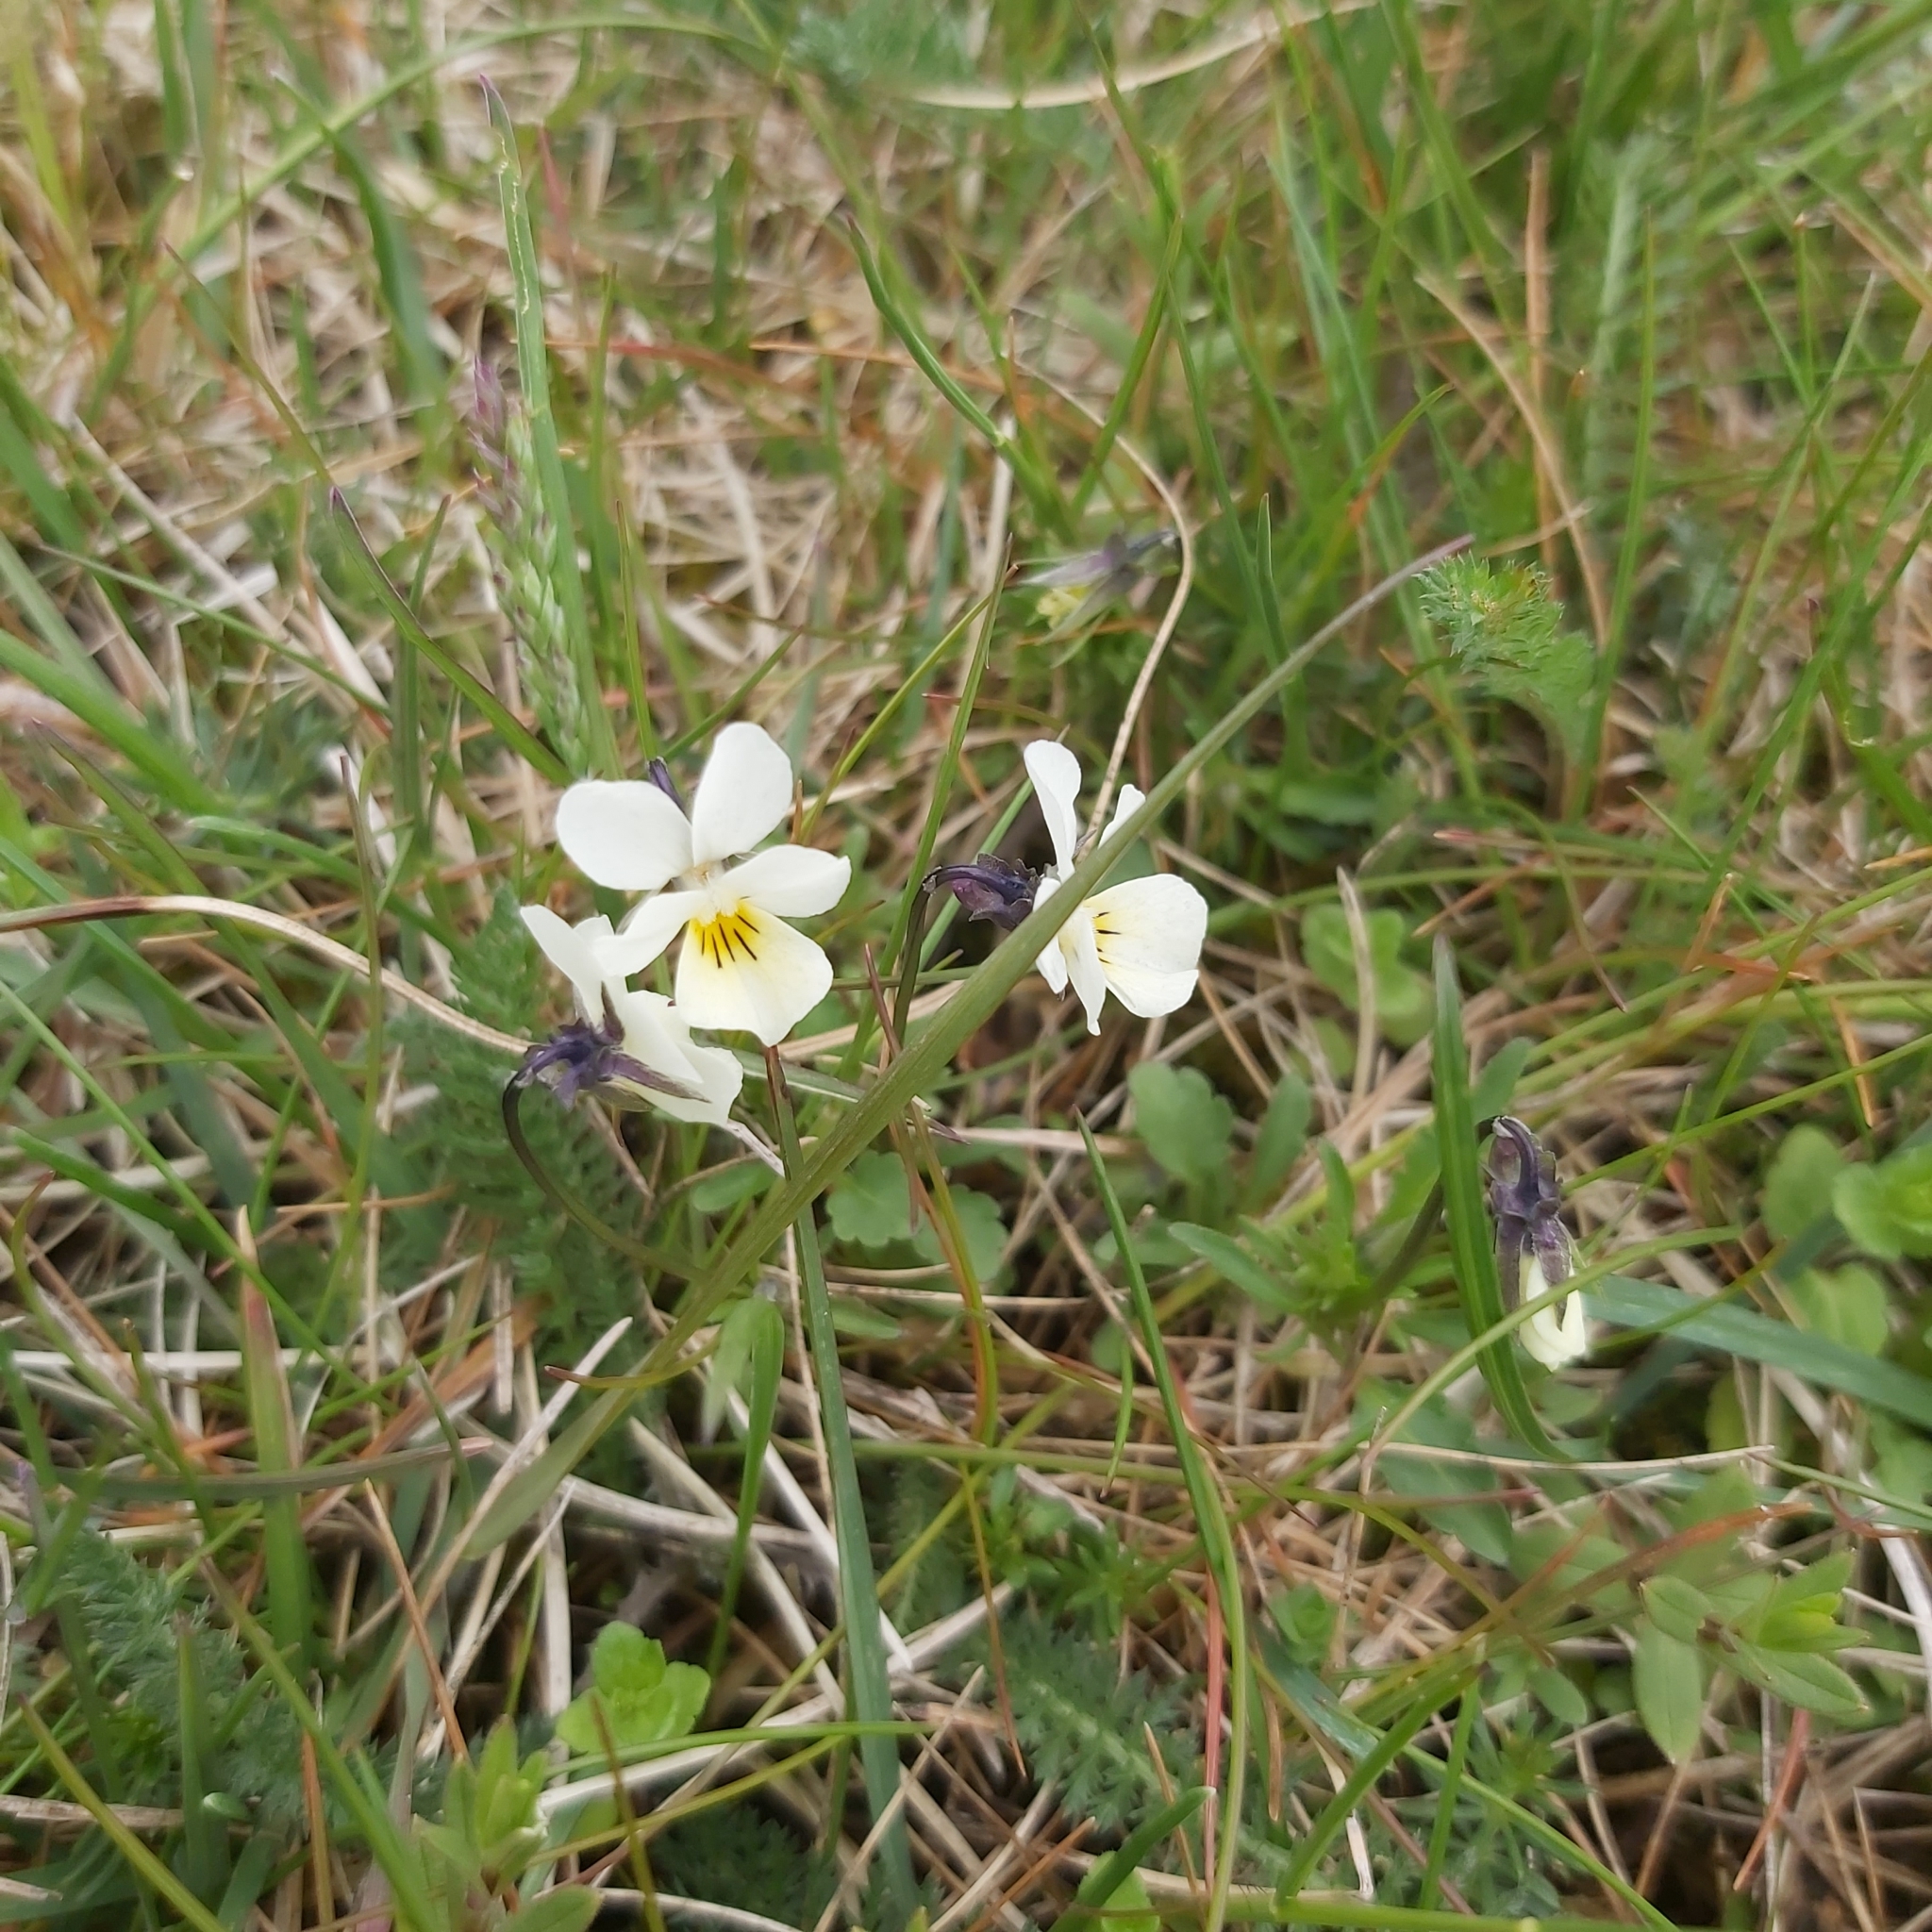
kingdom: Plantae
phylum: Tracheophyta
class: Magnoliopsida
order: Malpighiales
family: Violaceae
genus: Viola
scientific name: Viola arvensis
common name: Field pansy
